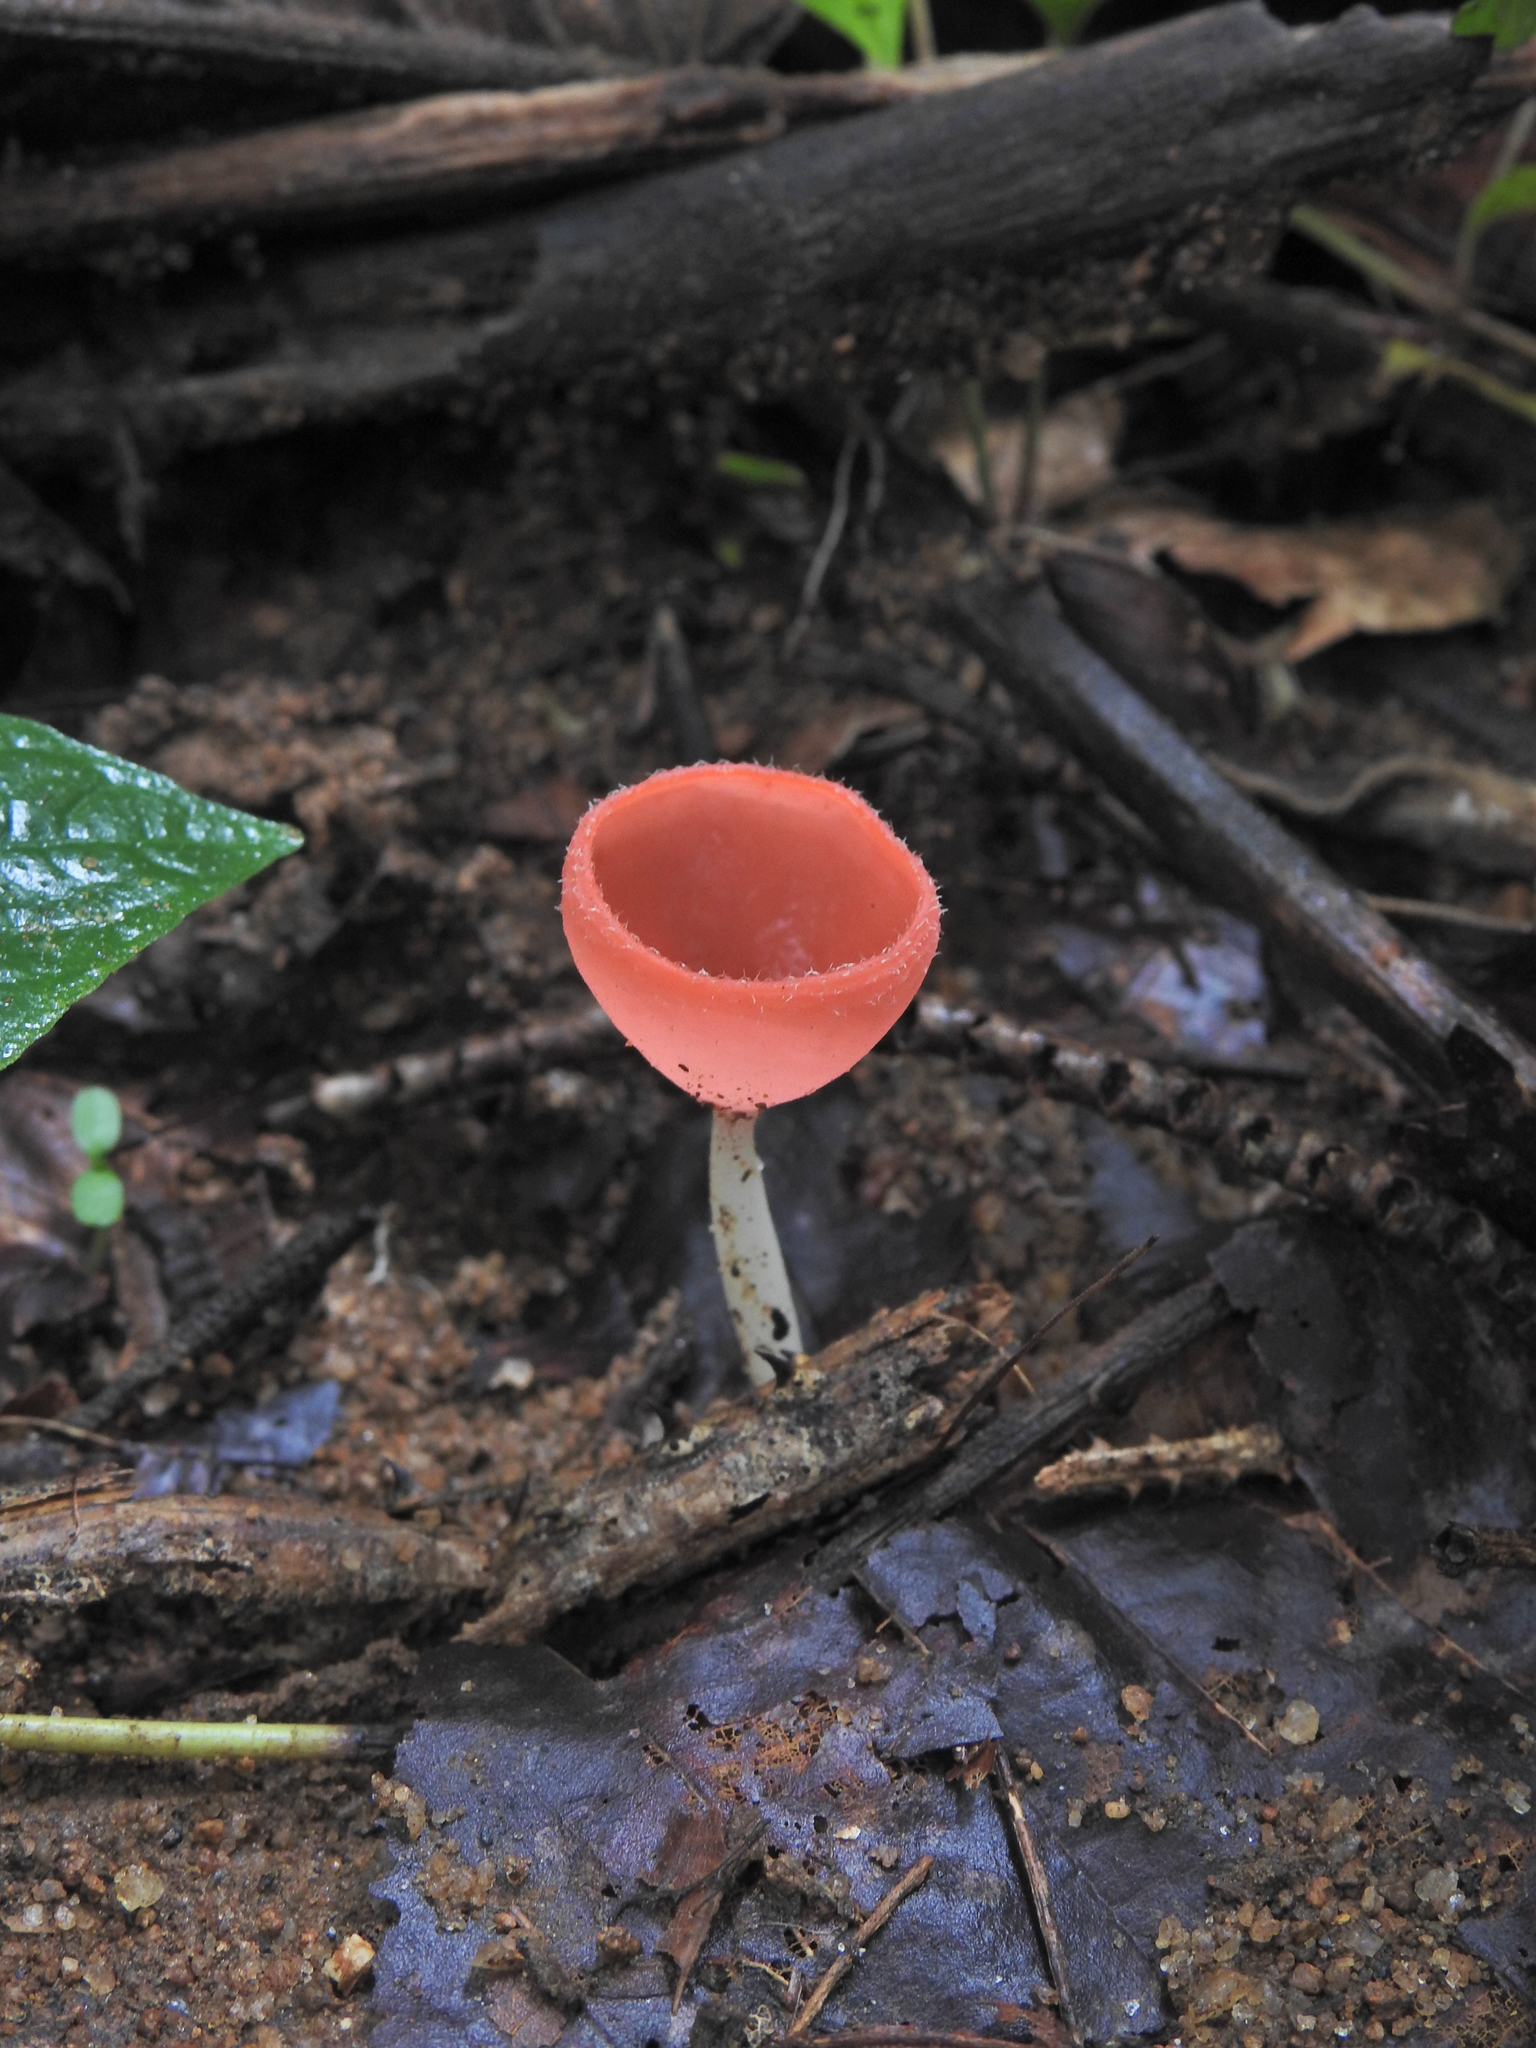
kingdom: Fungi
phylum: Ascomycota
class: Pezizomycetes
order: Pezizales
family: Sarcoscyphaceae
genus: Cookeina
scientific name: Cookeina speciosa
